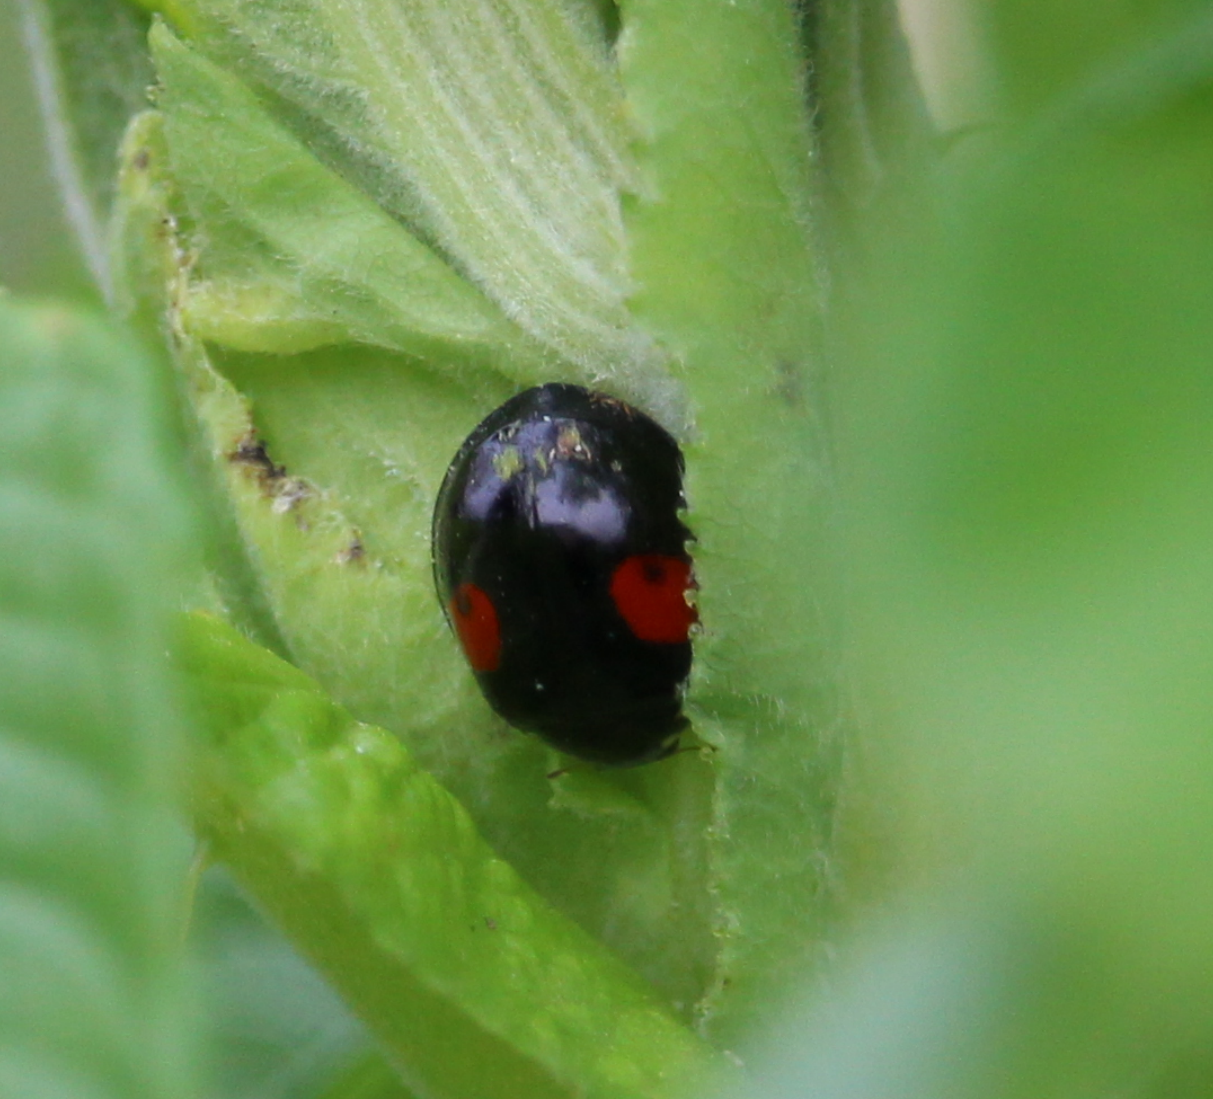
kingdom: Animalia
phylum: Arthropoda
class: Insecta
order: Coleoptera
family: Coccinellidae
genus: Harmonia
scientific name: Harmonia axyridis
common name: Harlequin ladybird
